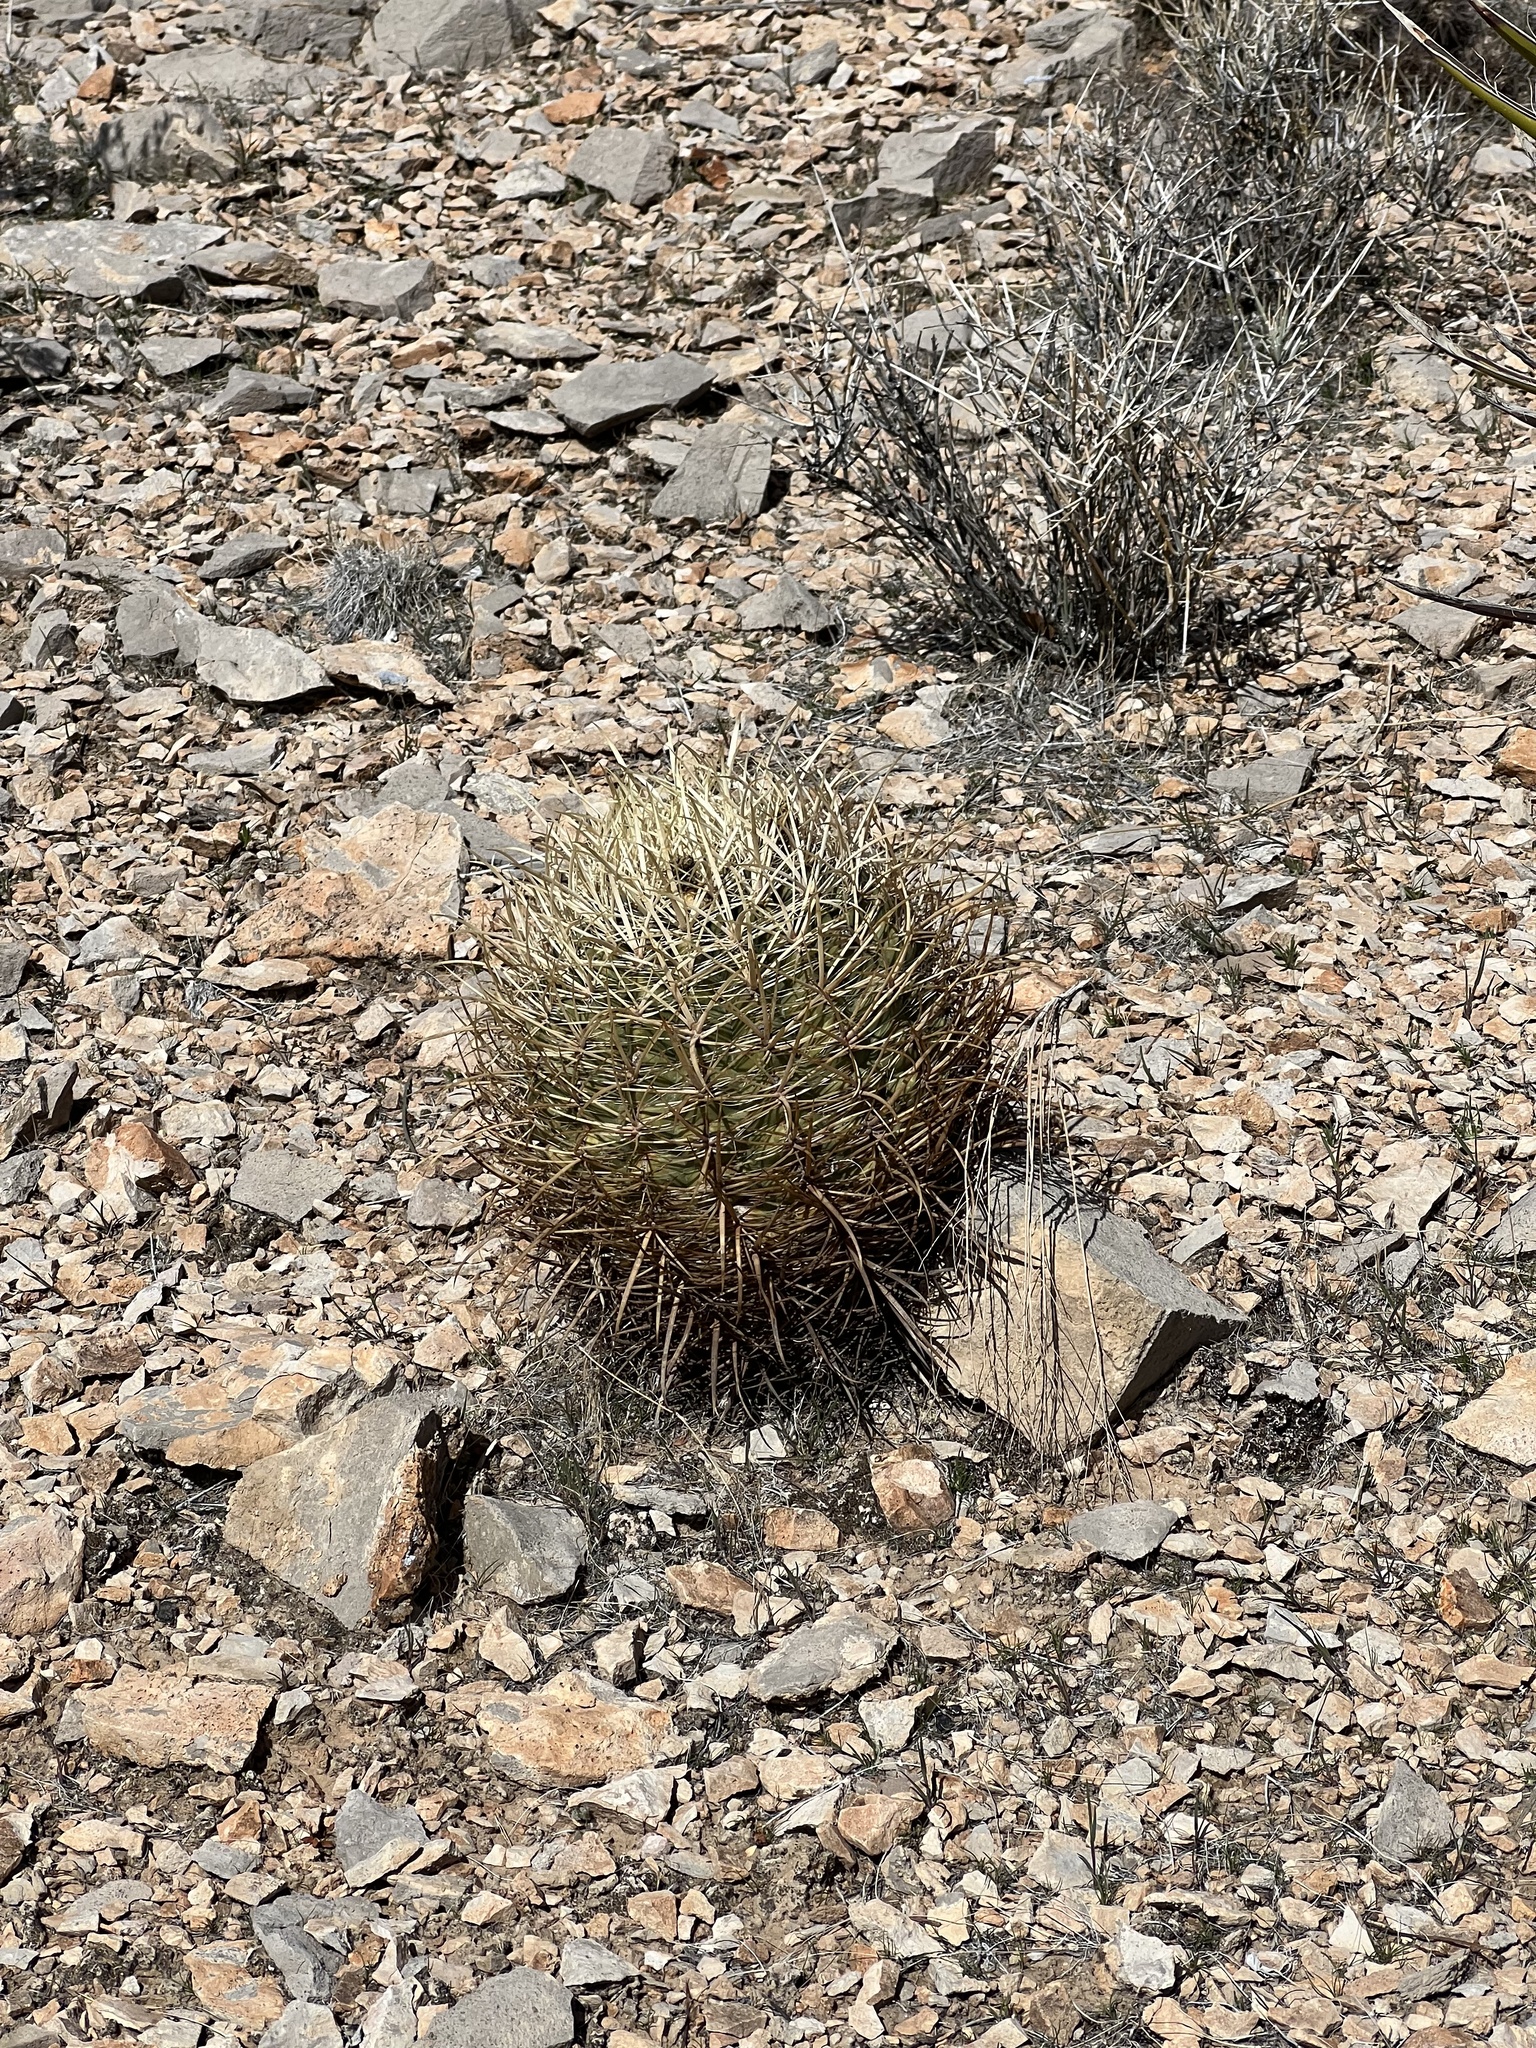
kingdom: Plantae
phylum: Tracheophyta
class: Magnoliopsida
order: Caryophyllales
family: Cactaceae
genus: Ferocactus
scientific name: Ferocactus cylindraceus
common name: California barrel cactus
